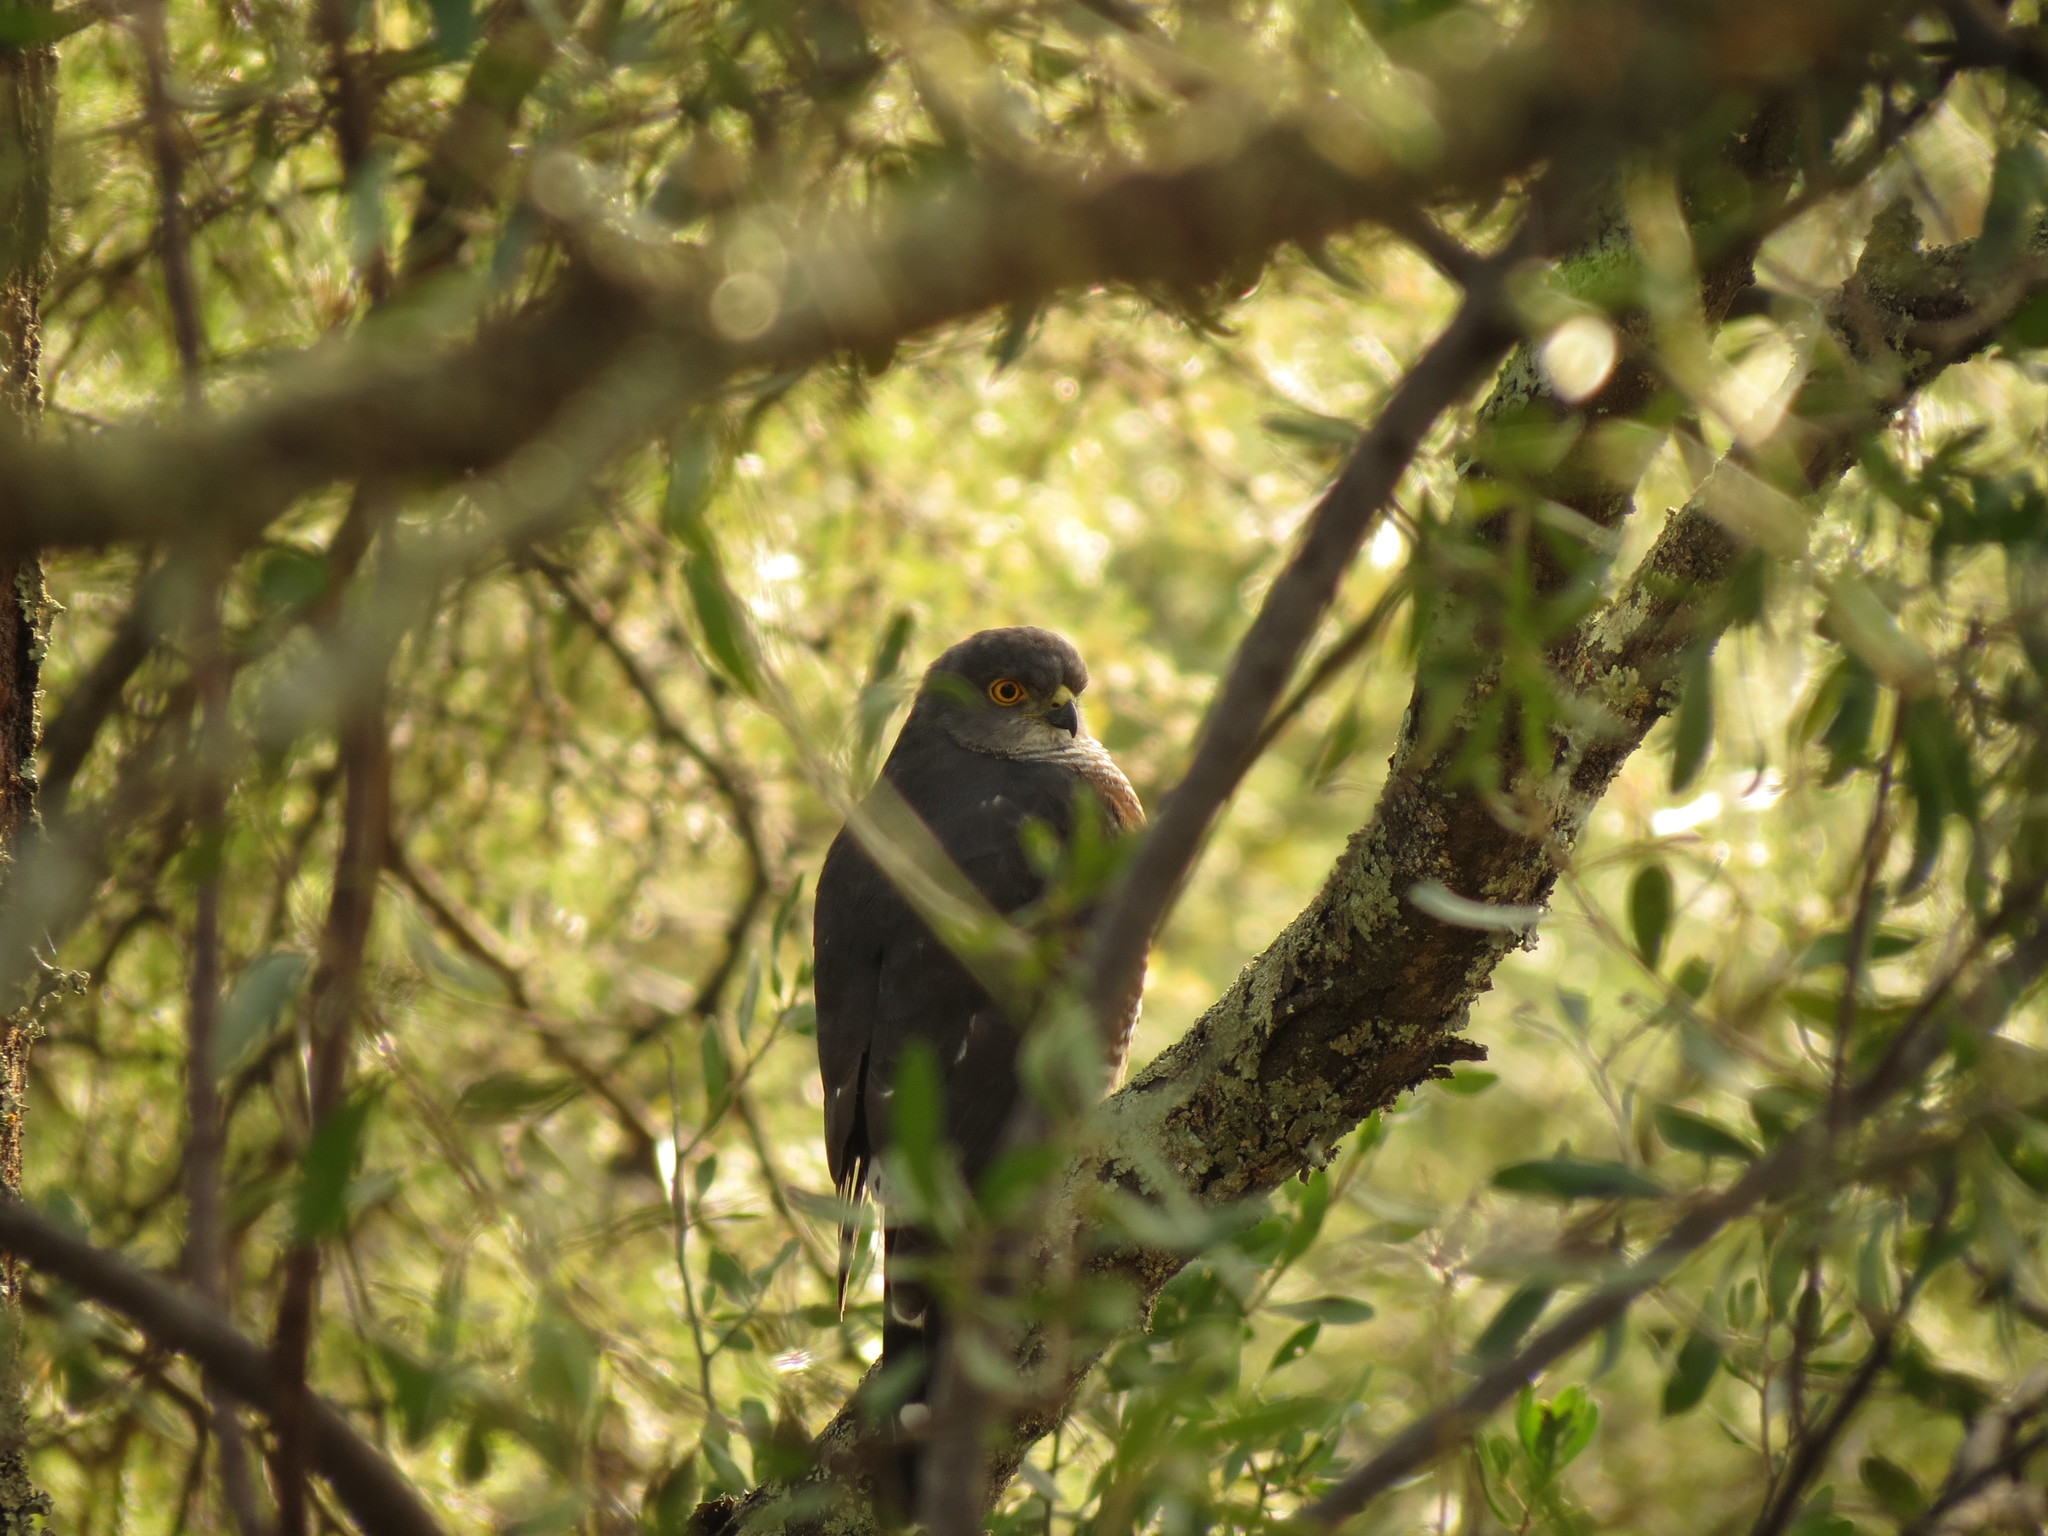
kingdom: Animalia
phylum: Chordata
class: Aves
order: Accipitriformes
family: Accipitridae
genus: Accipiter
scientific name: Accipiter minullus
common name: Little sparrowhawk
